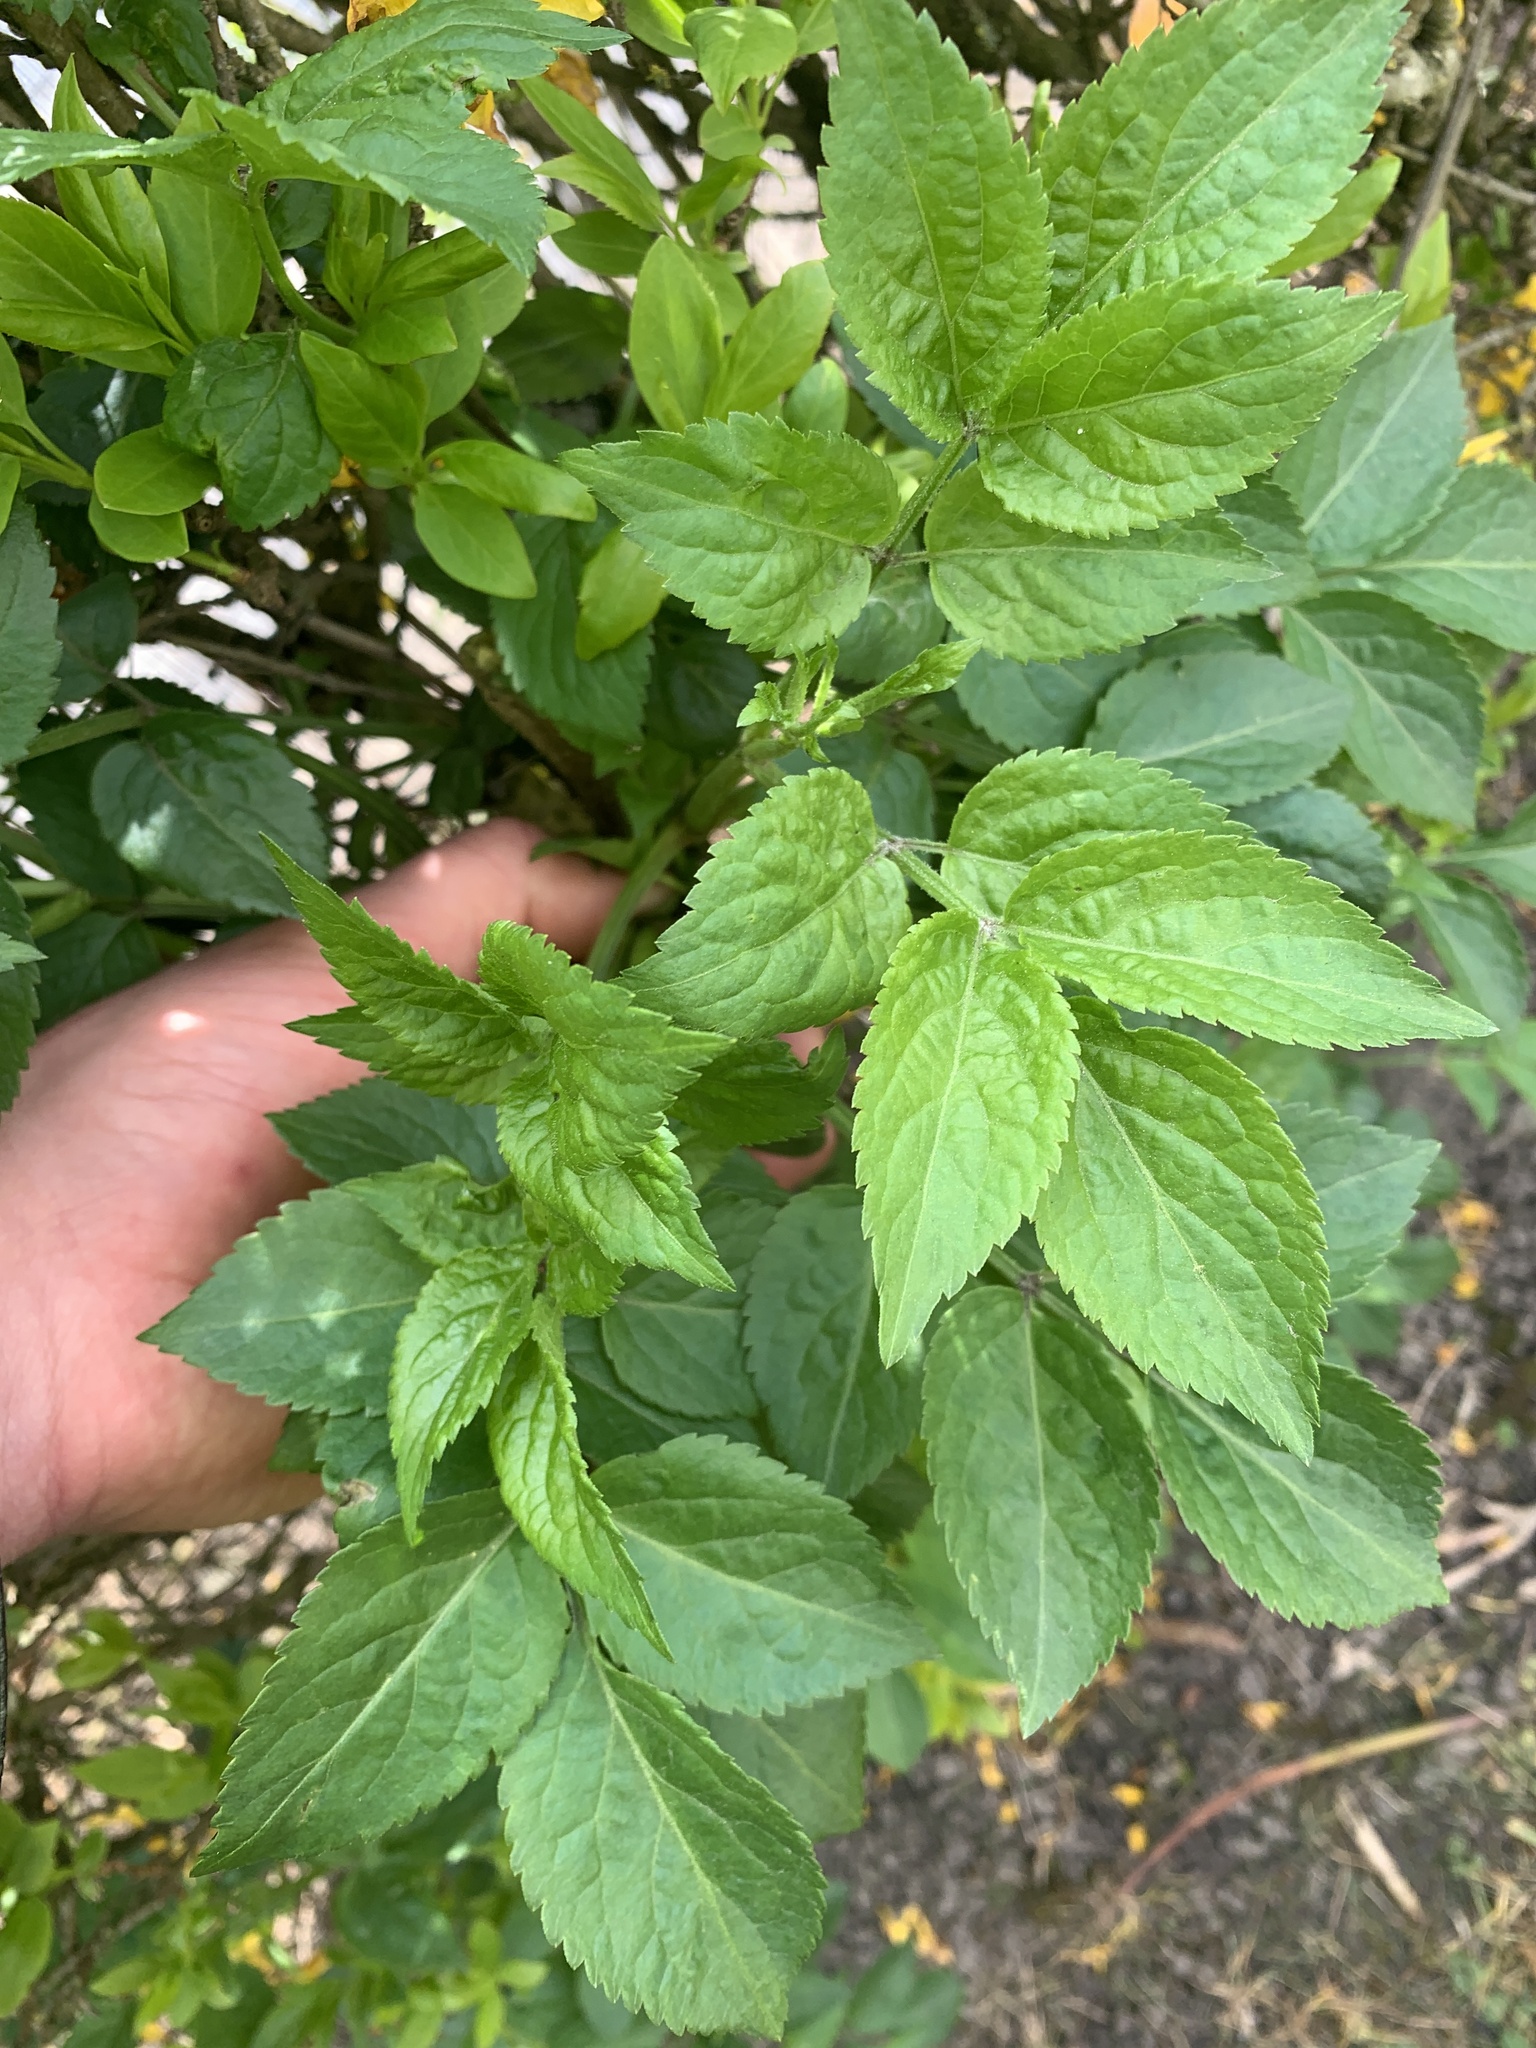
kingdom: Plantae
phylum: Tracheophyta
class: Magnoliopsida
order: Dipsacales
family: Viburnaceae
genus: Sambucus
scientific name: Sambucus nigra
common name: Elder
